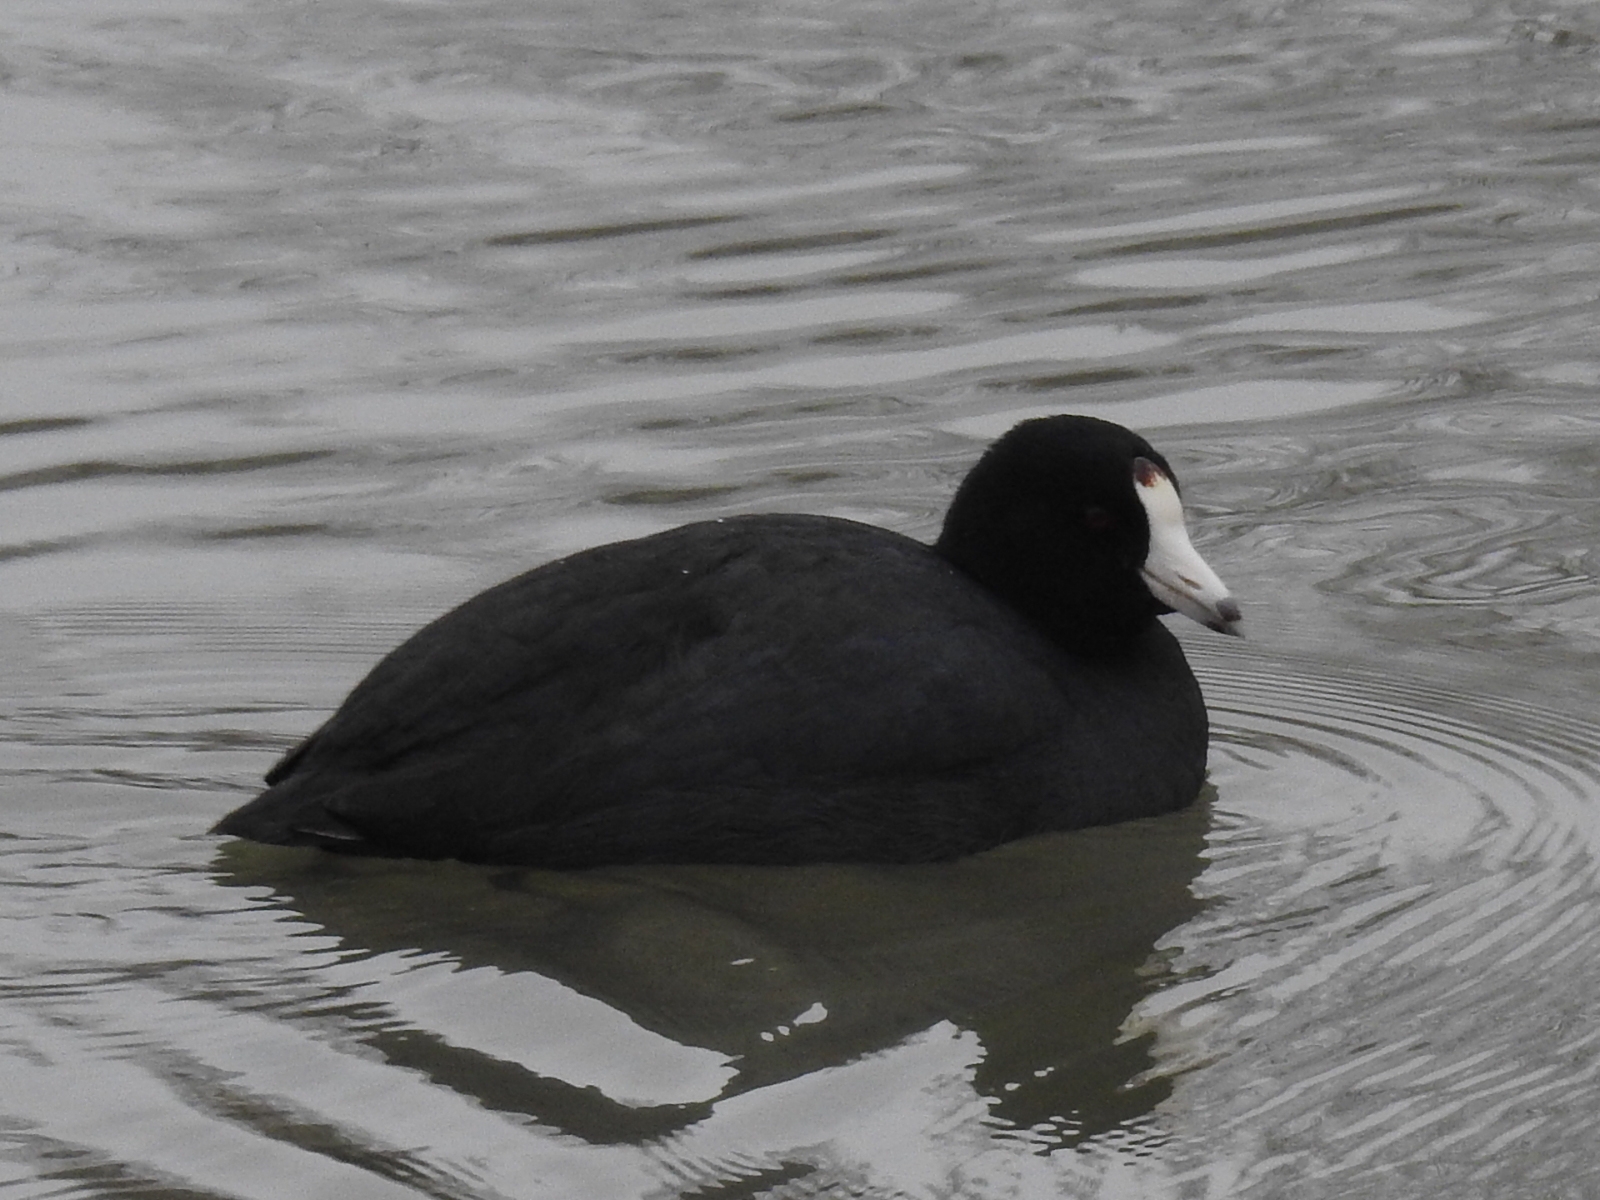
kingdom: Animalia
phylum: Chordata
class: Aves
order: Gruiformes
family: Rallidae
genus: Fulica
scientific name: Fulica americana
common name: American coot
